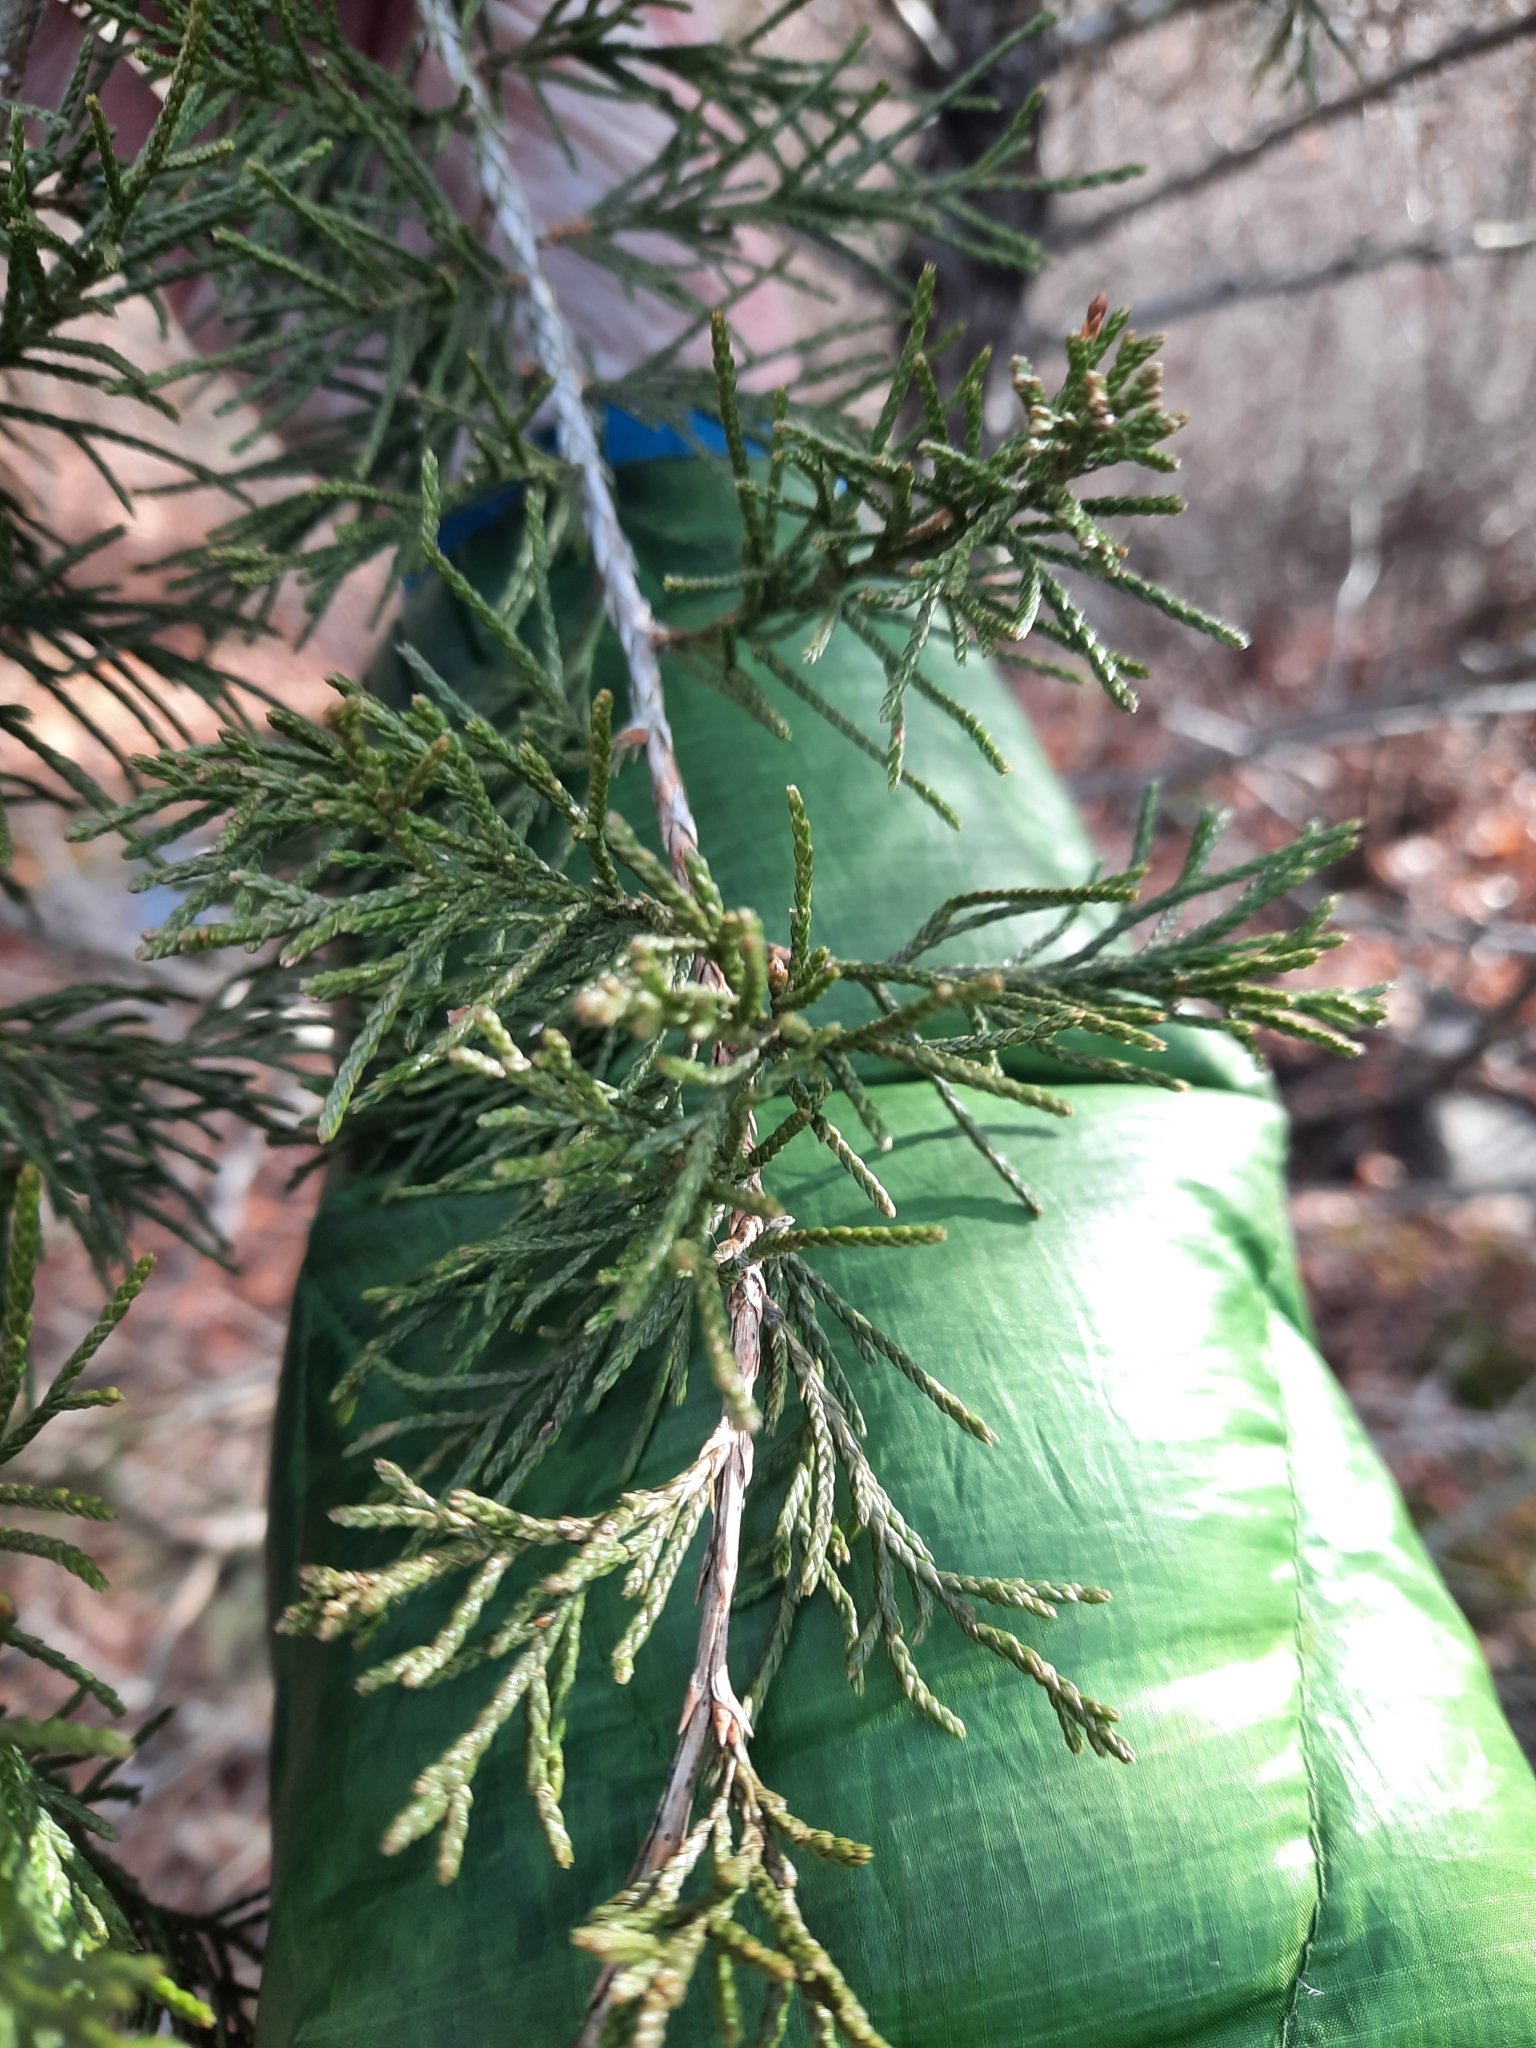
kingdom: Plantae
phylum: Tracheophyta
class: Pinopsida
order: Pinales
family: Cupressaceae
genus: Juniperus
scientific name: Juniperus virginiana
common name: Red juniper
